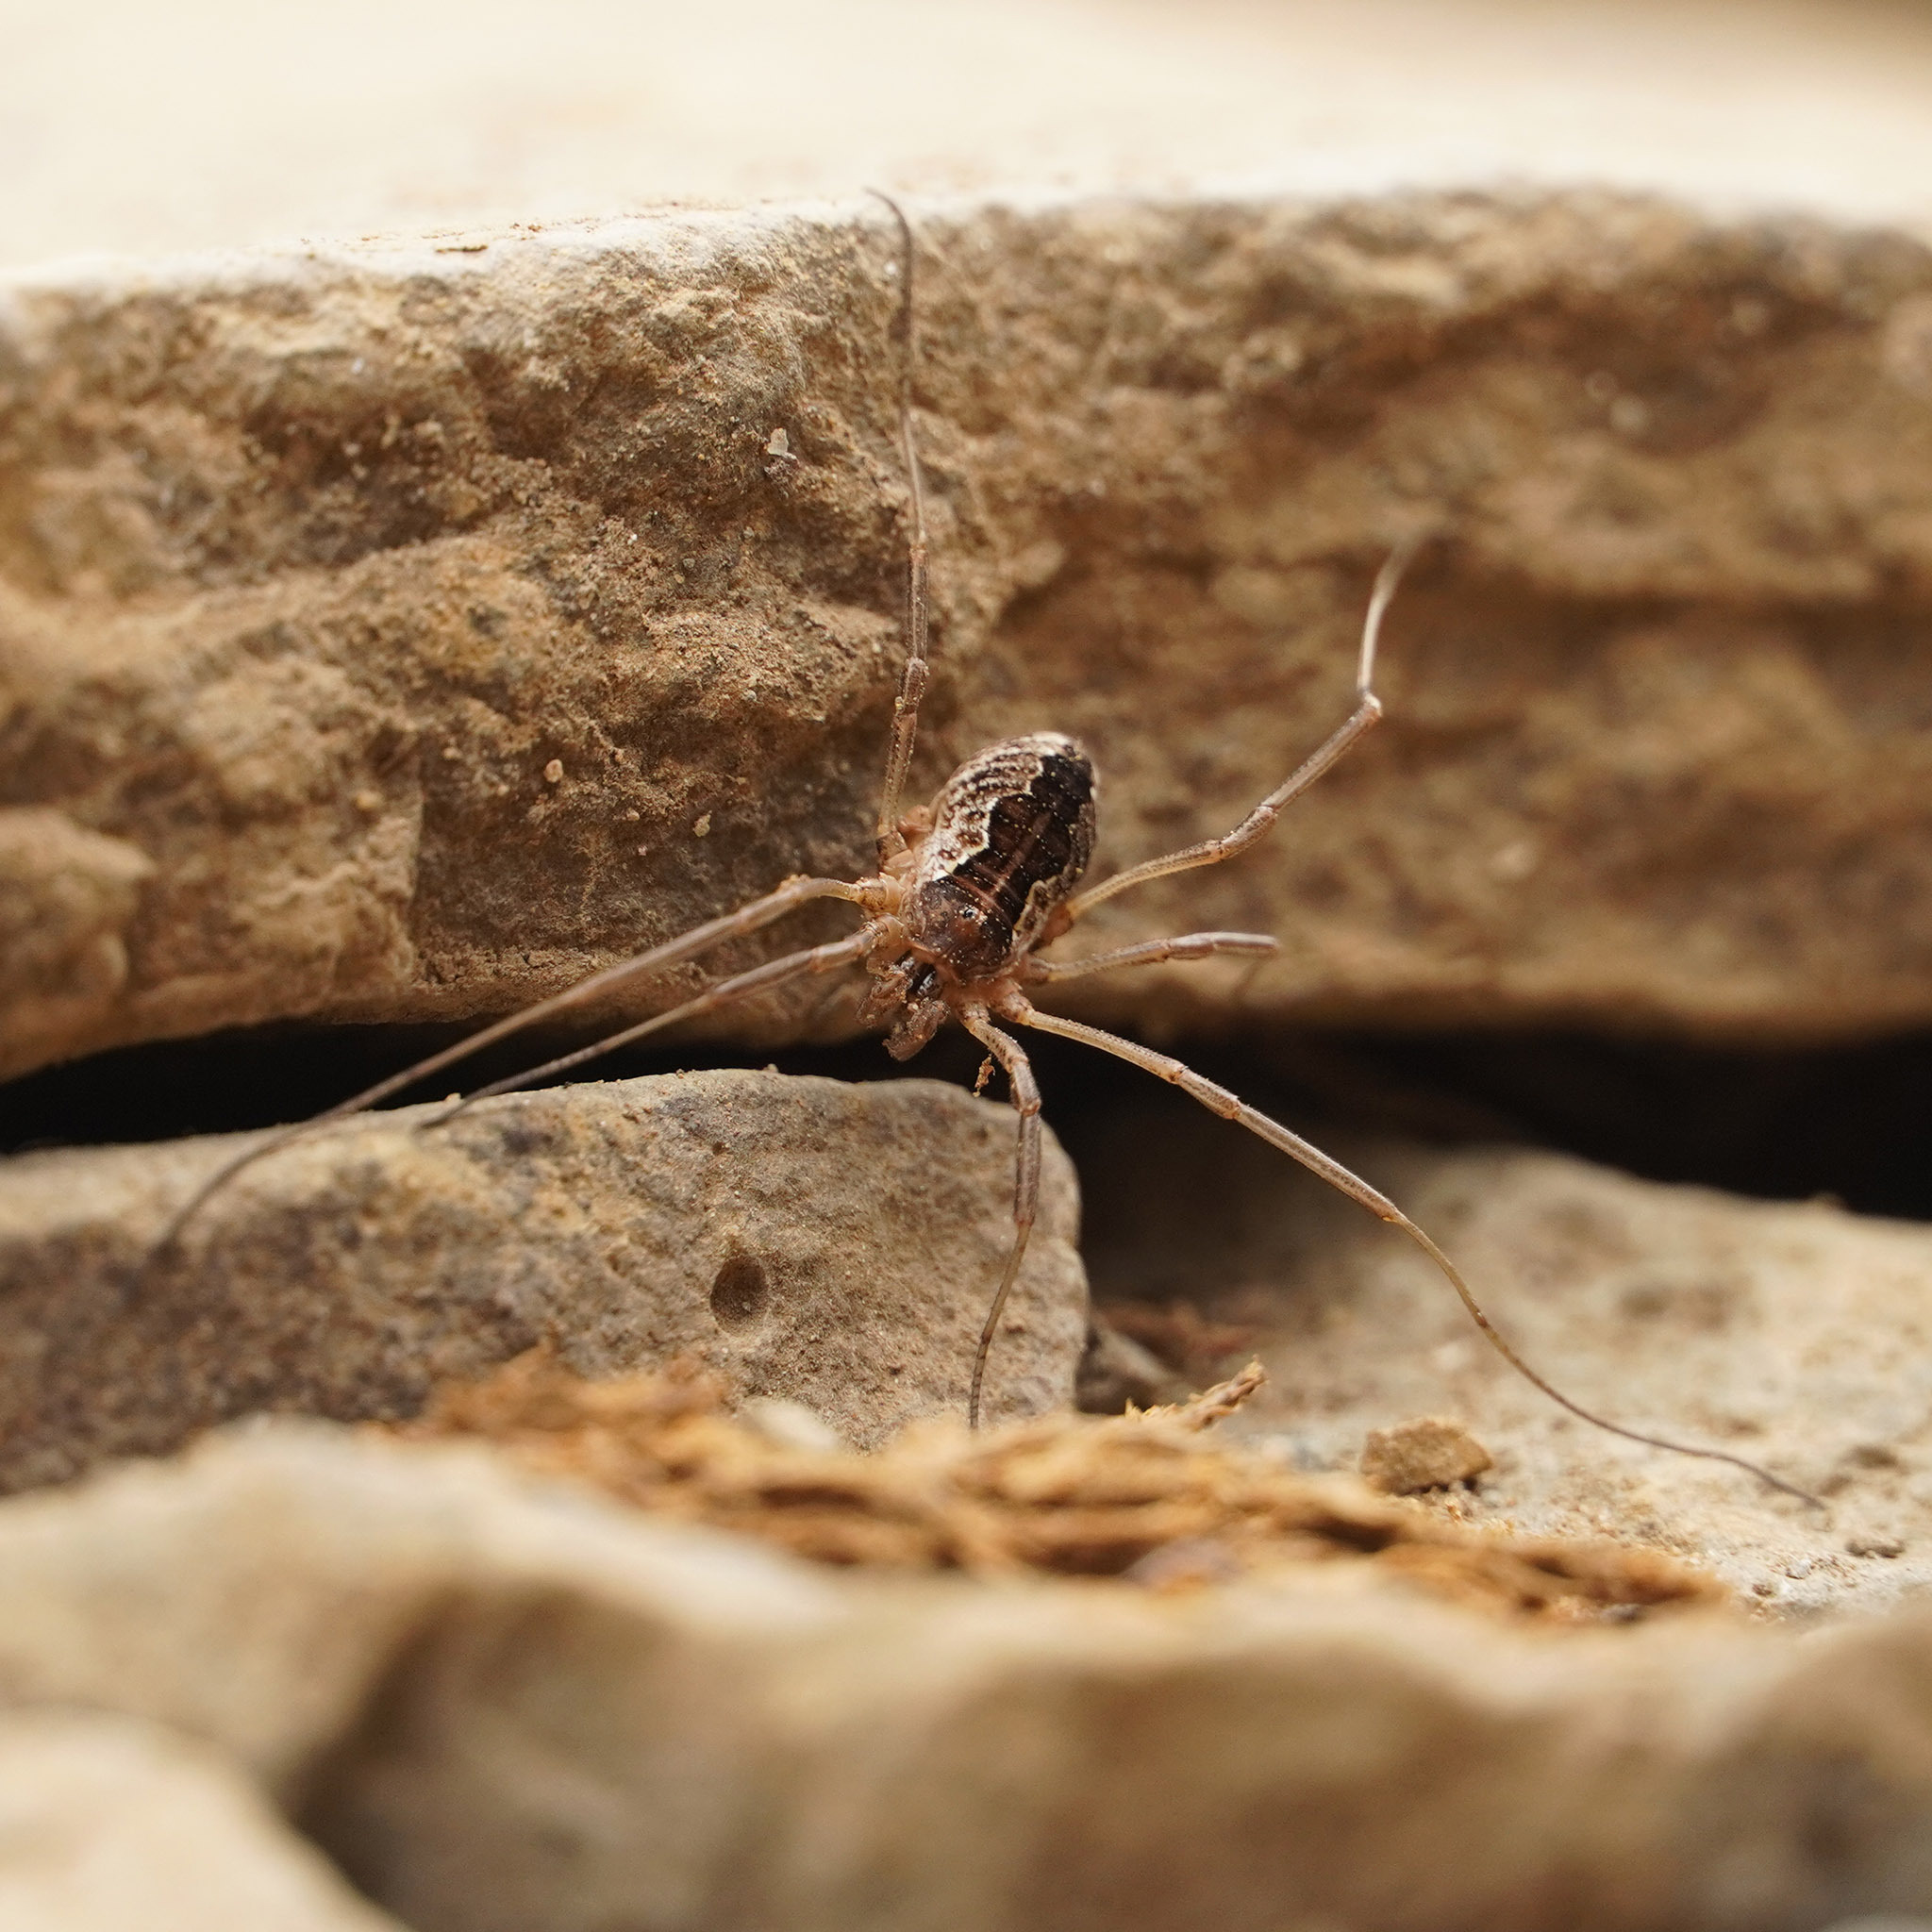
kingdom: Animalia
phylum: Arthropoda
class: Arachnida
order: Opiliones
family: Phalangiidae
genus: Mitopus
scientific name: Mitopus morio
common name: Saddleback harvestman
